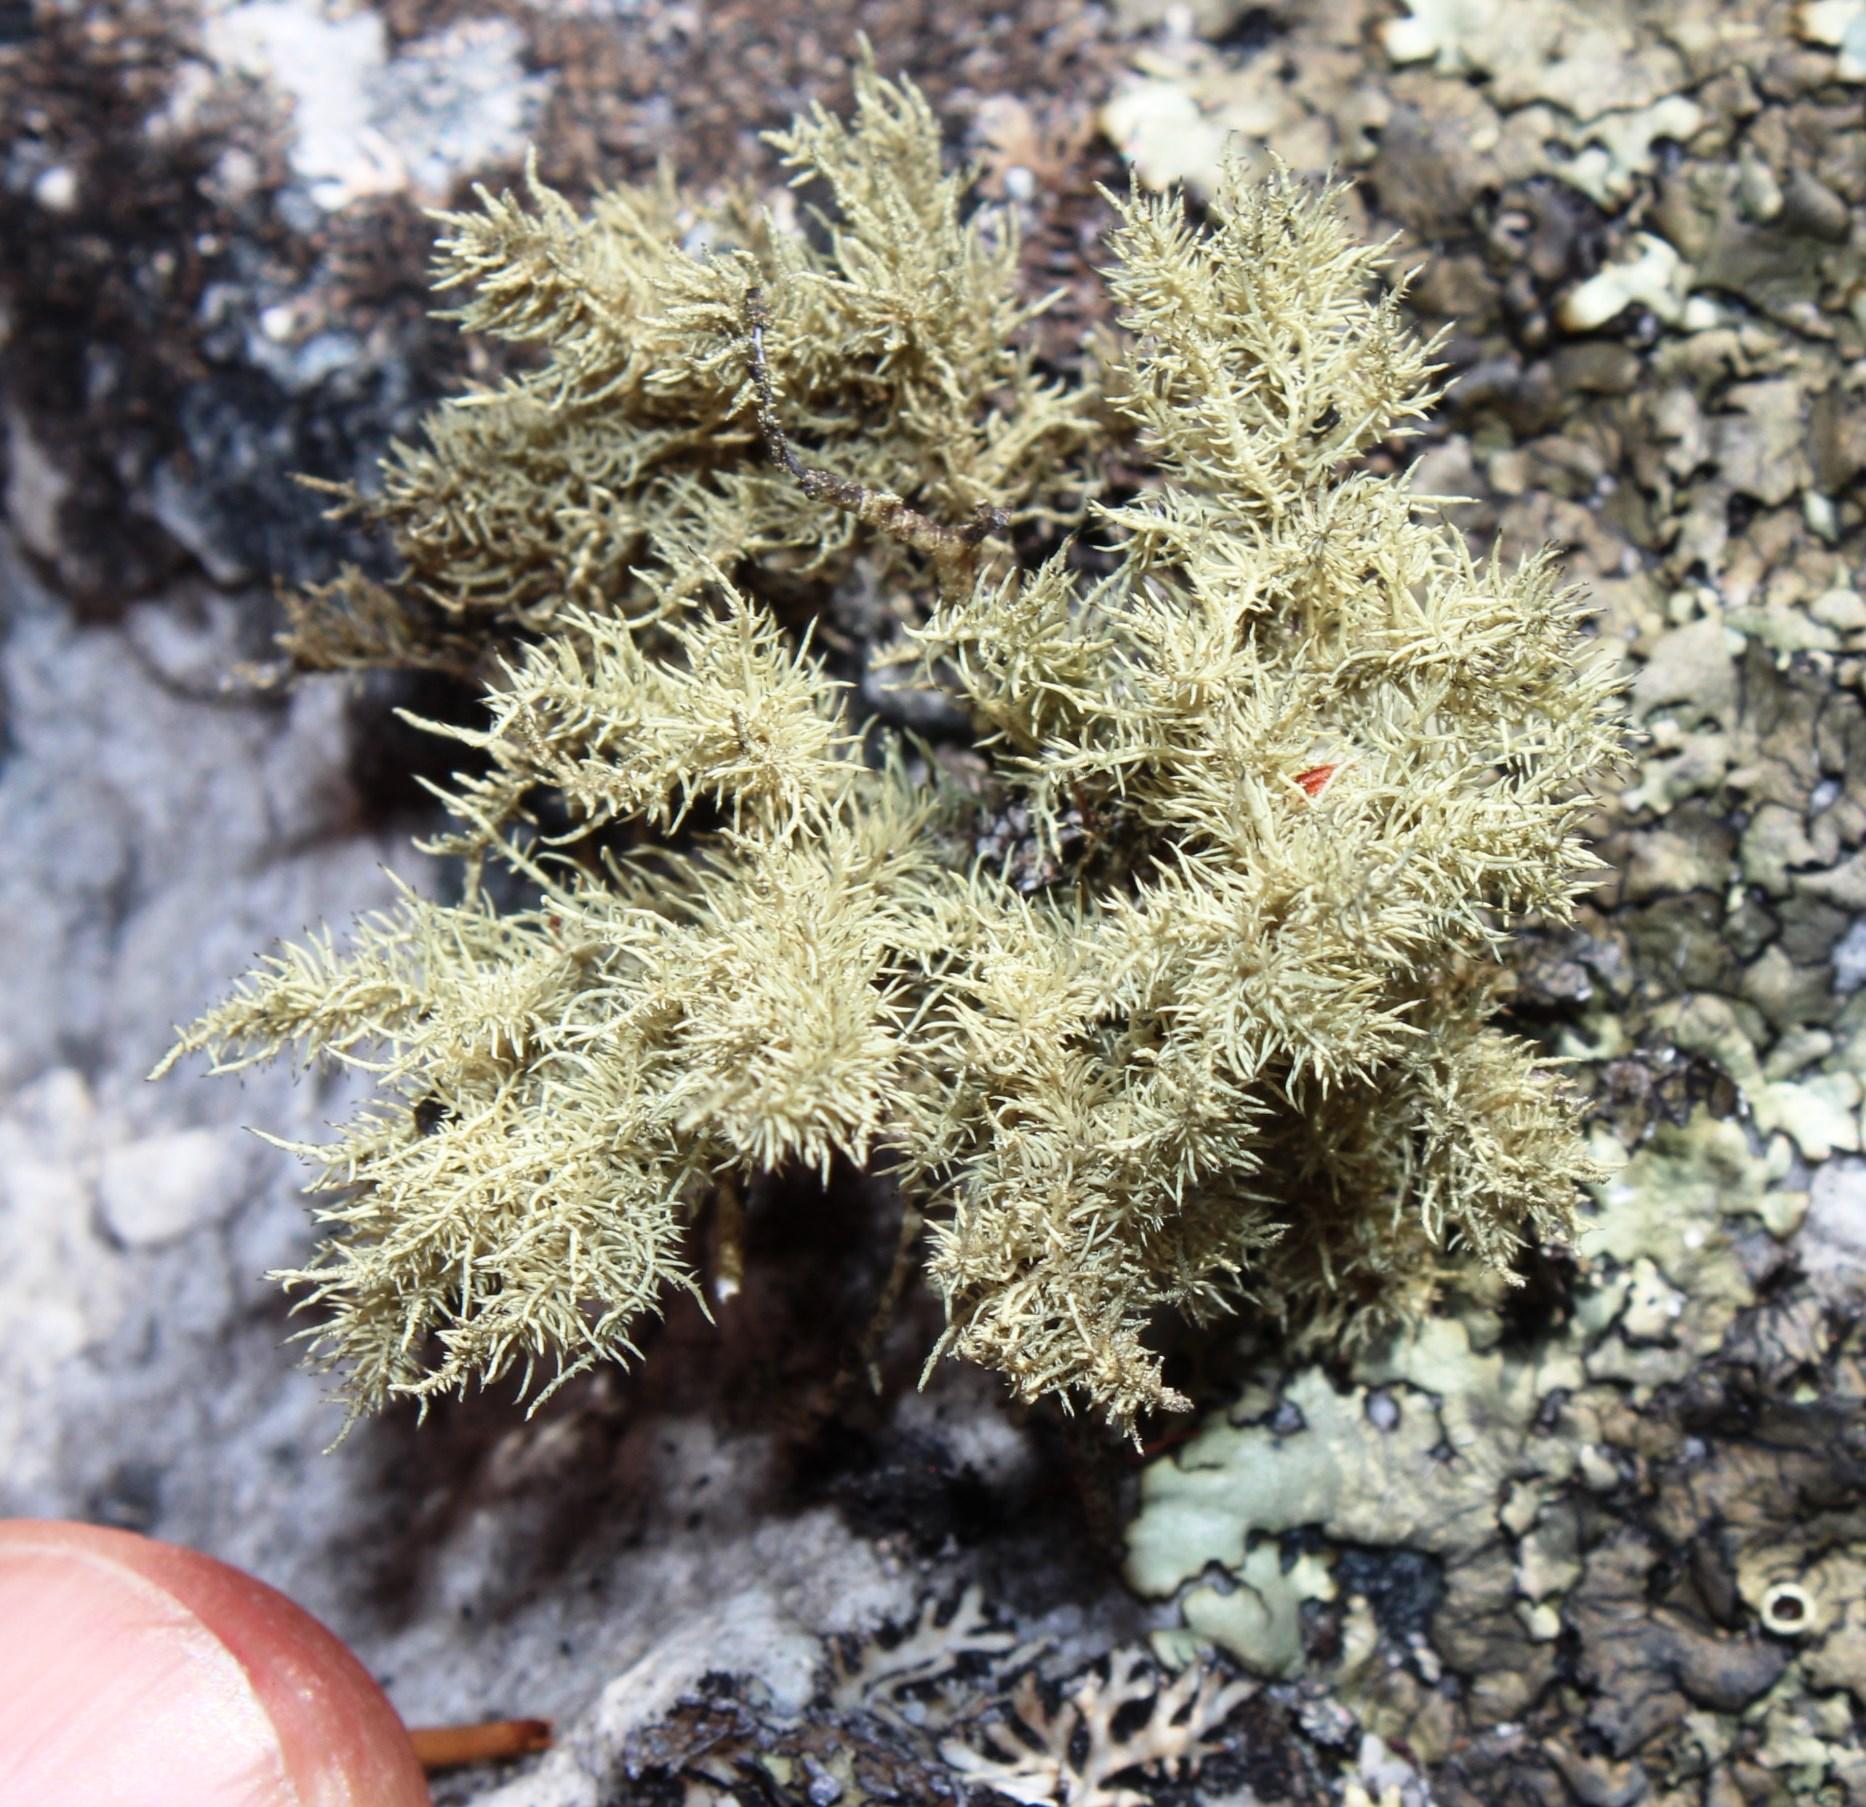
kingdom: Fungi
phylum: Ascomycota
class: Lecanoromycetes
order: Lecanorales
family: Parmeliaceae
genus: Usnea
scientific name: Usnea pulvinata
